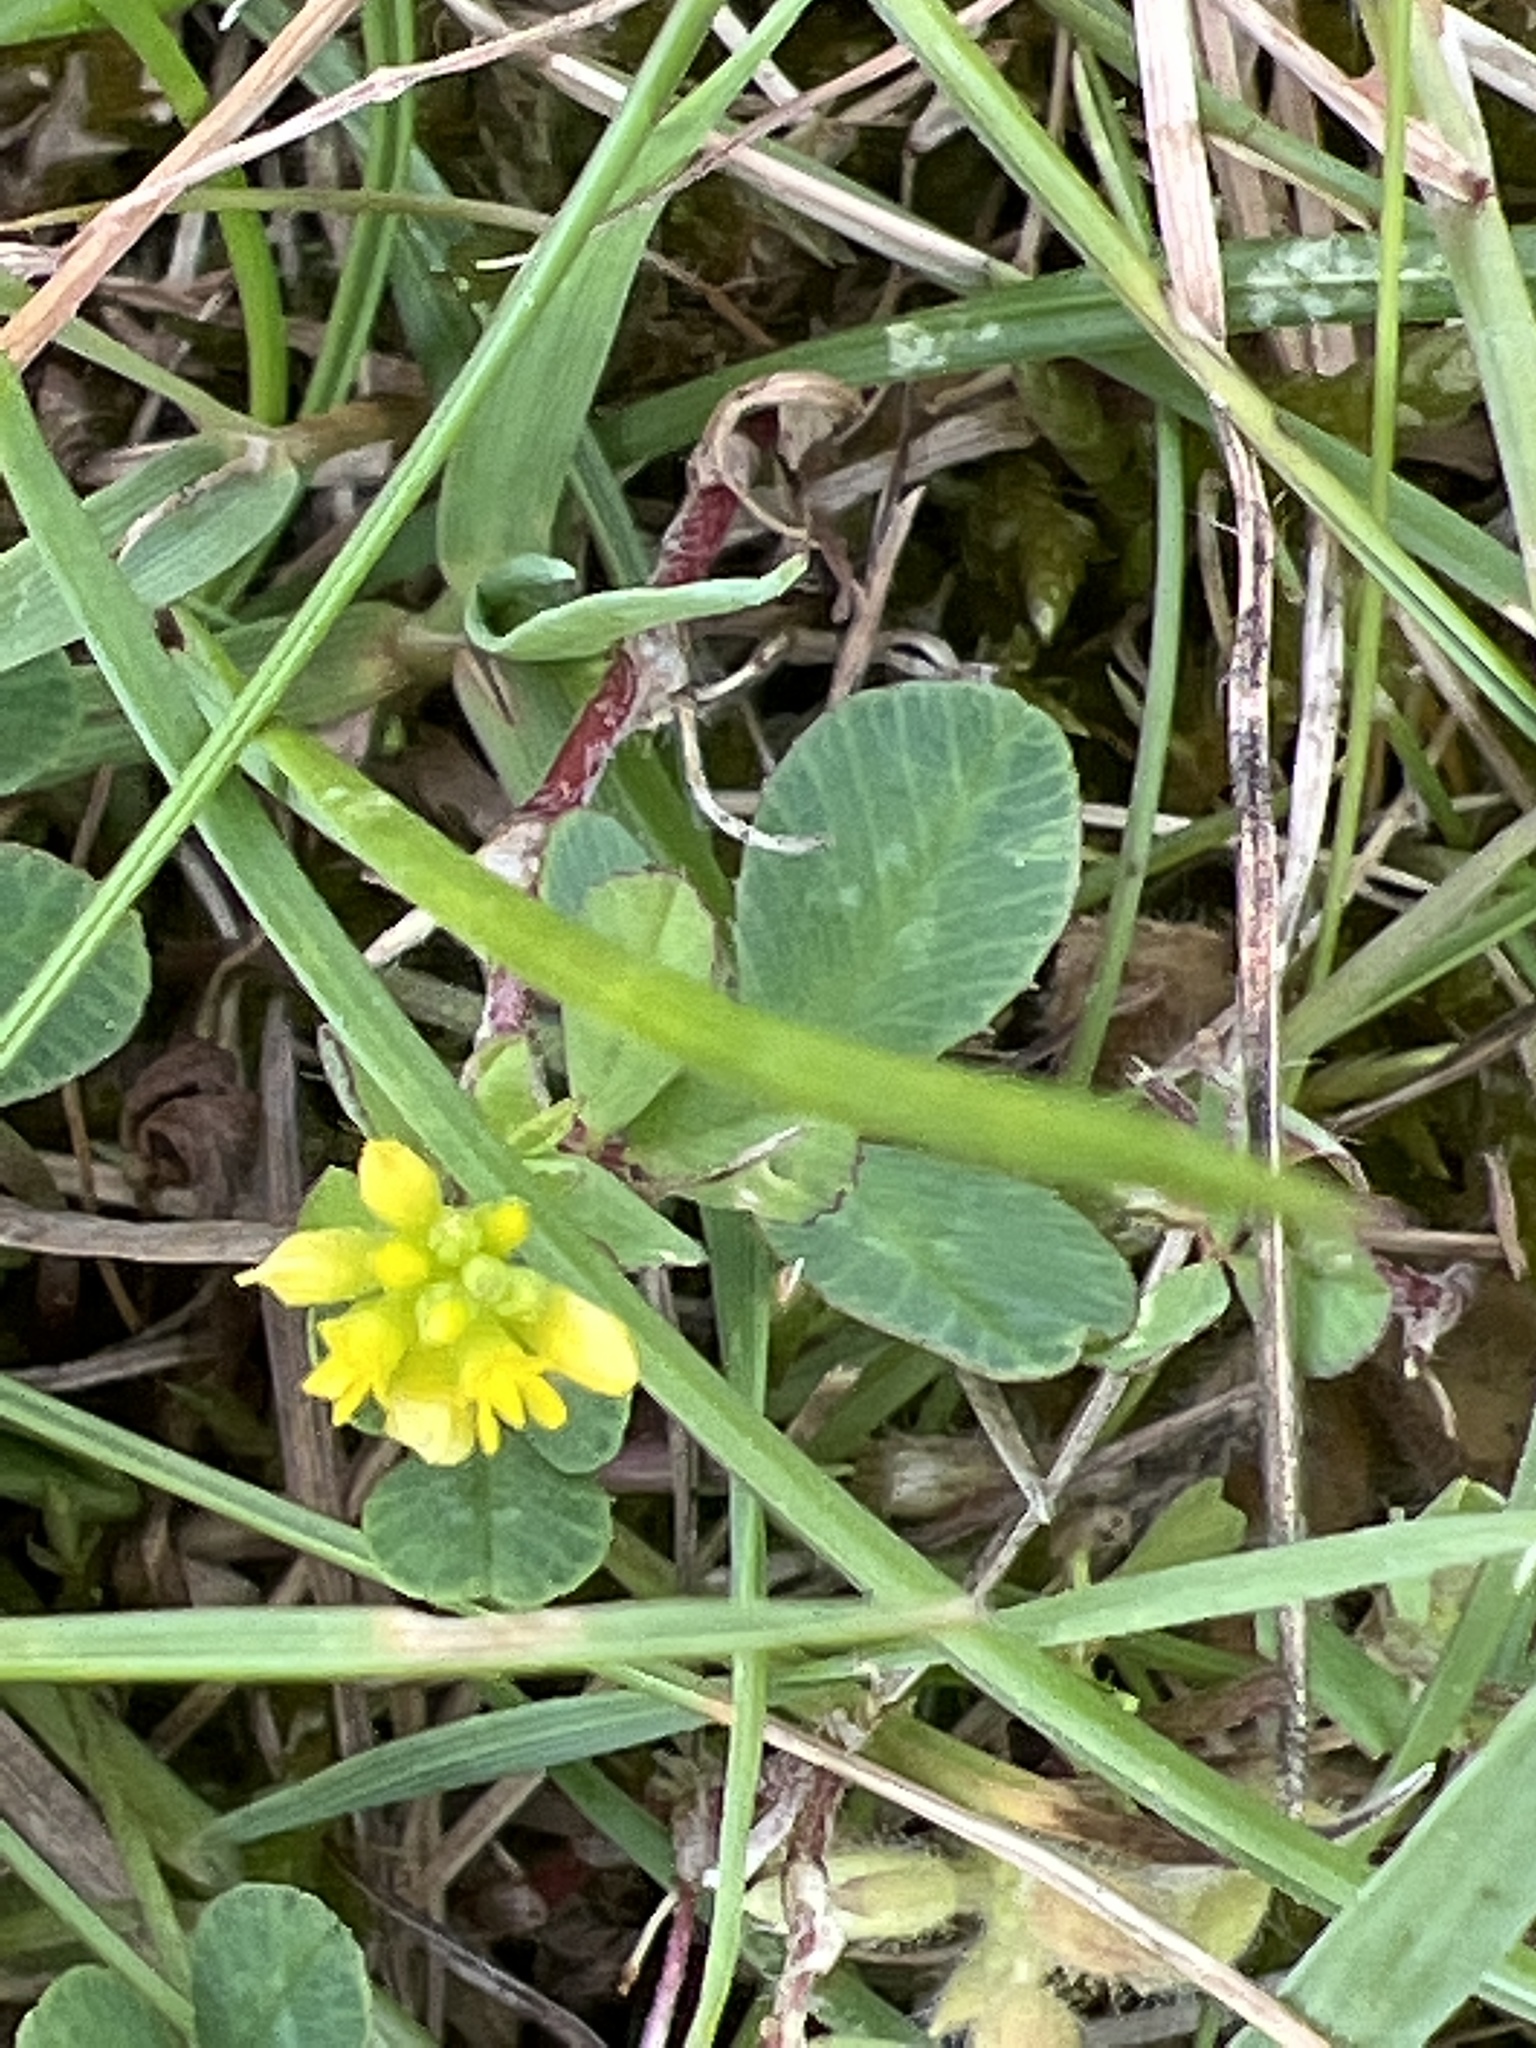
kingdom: Plantae
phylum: Tracheophyta
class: Magnoliopsida
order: Fabales
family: Fabaceae
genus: Trifolium
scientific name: Trifolium dubium
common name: Suckling clover
